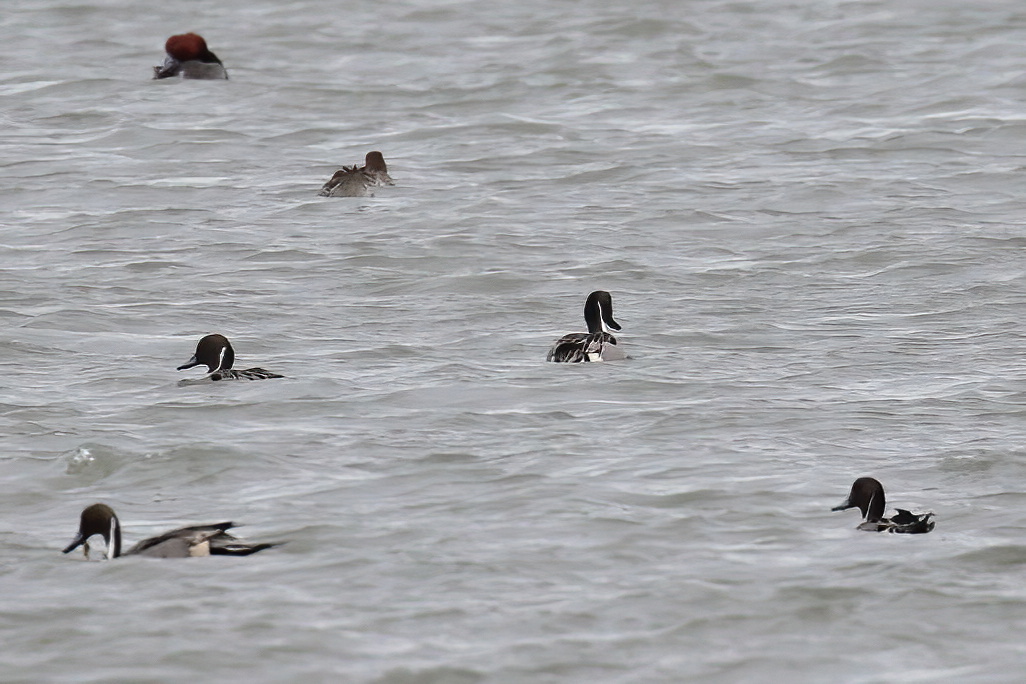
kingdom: Animalia
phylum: Chordata
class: Aves
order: Anseriformes
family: Anatidae
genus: Anas
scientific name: Anas acuta
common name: Northern pintail
